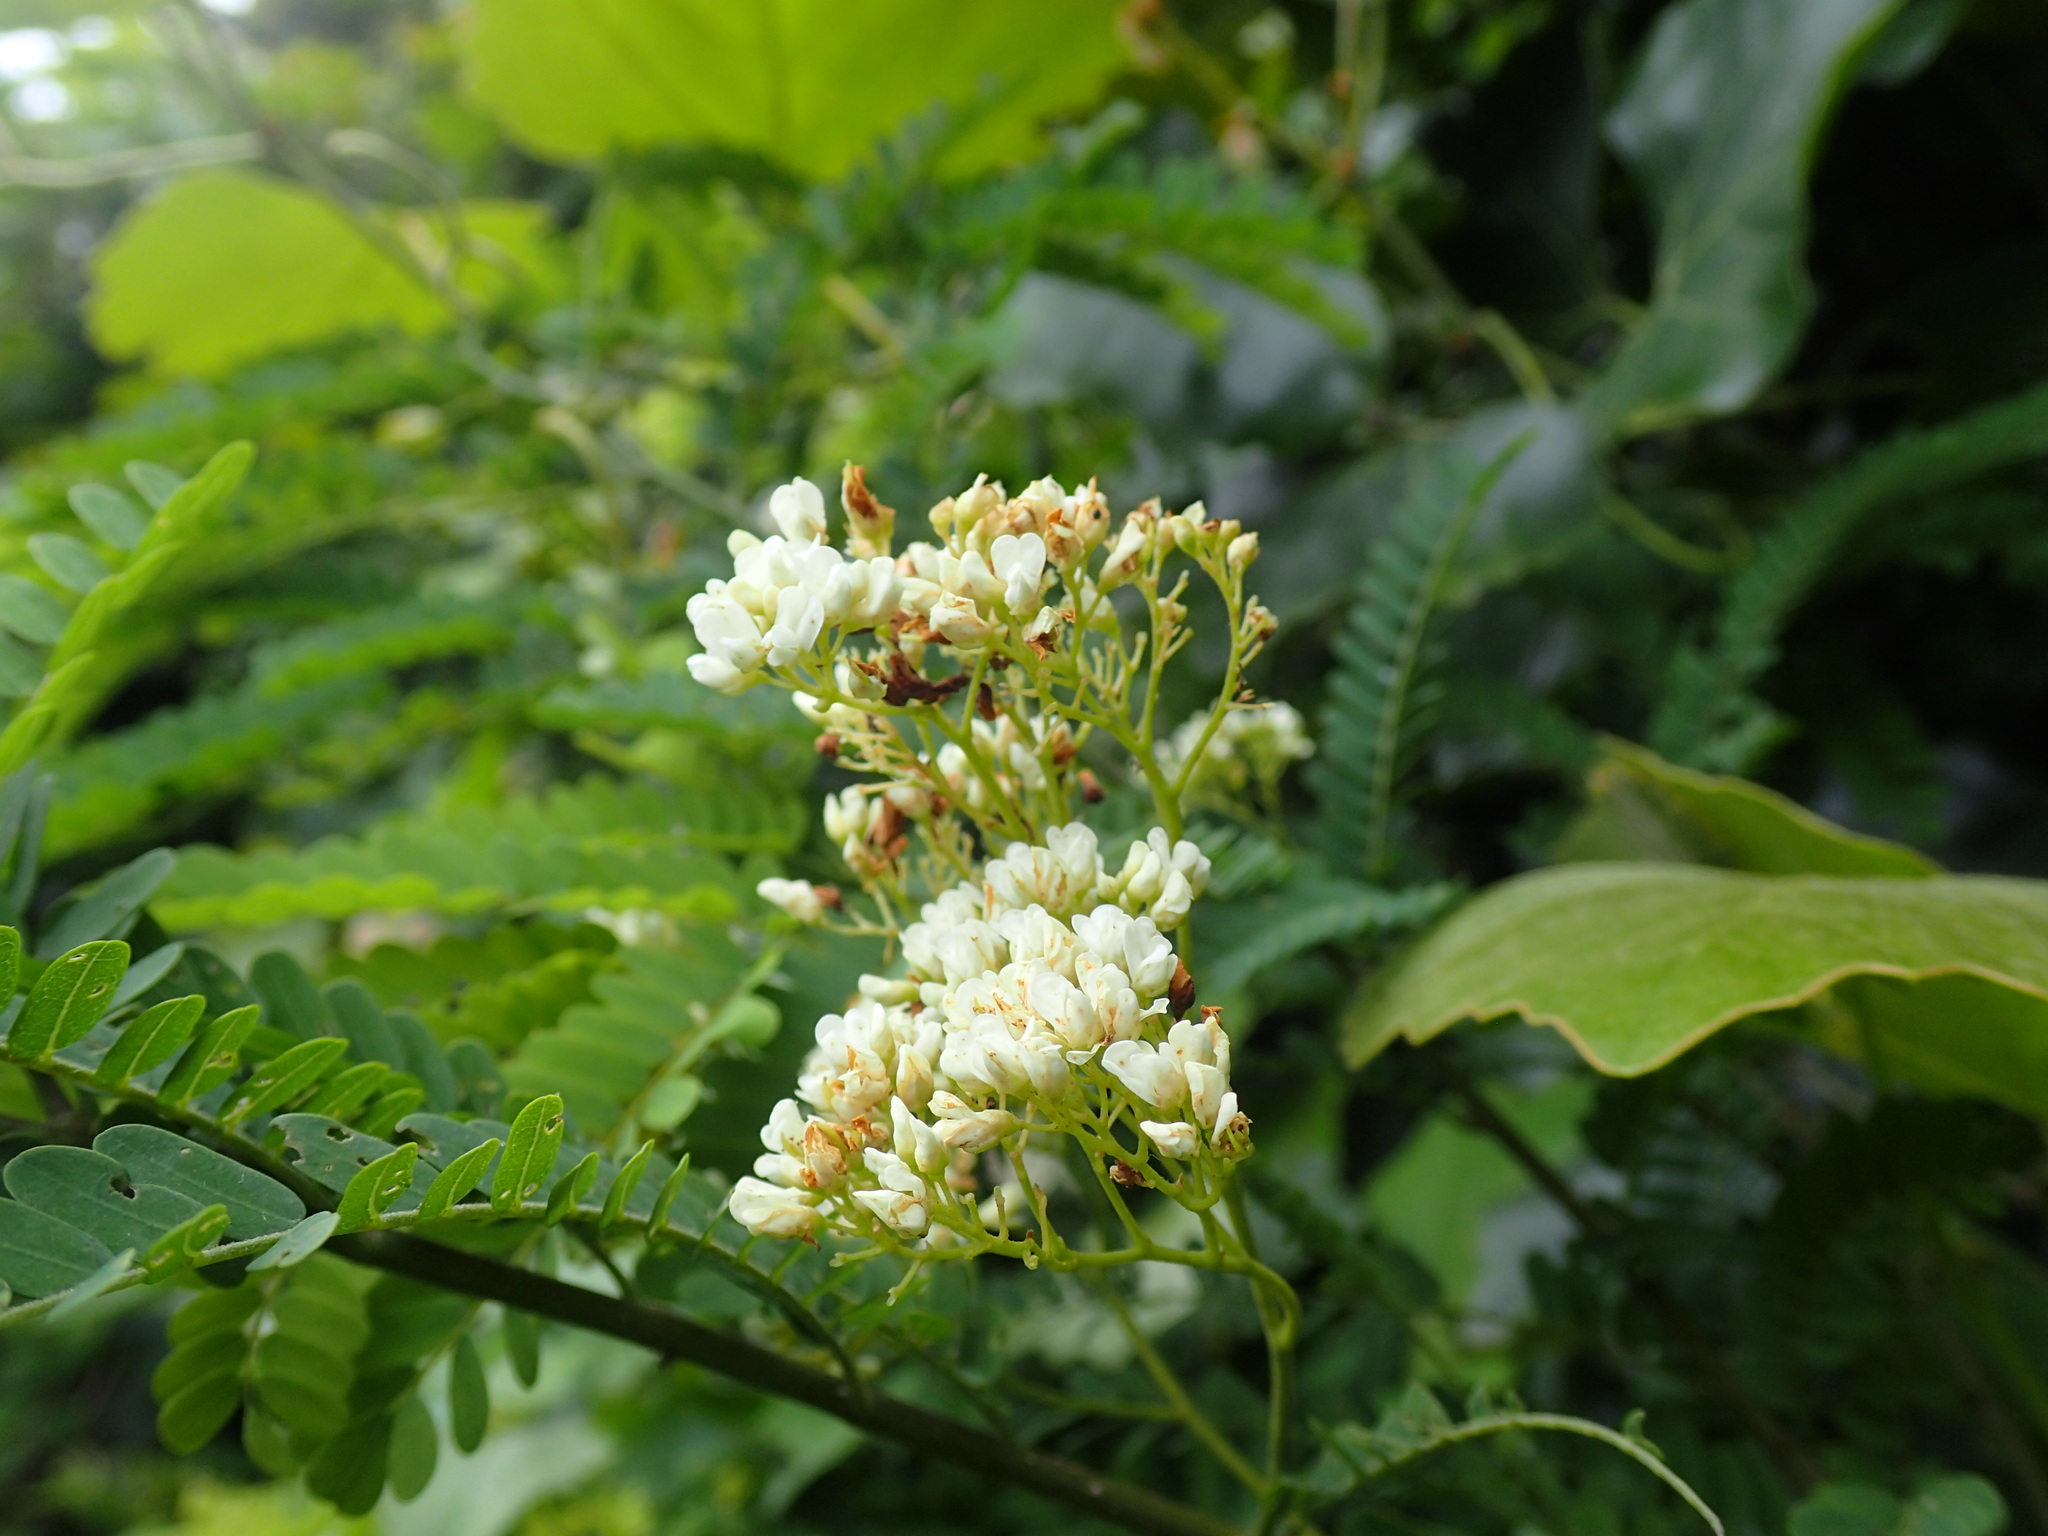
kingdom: Plantae
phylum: Tracheophyta
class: Magnoliopsida
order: Fabales
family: Fabaceae
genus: Dalbergia
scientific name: Dalbergia armata
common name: Hluhluwe climber
